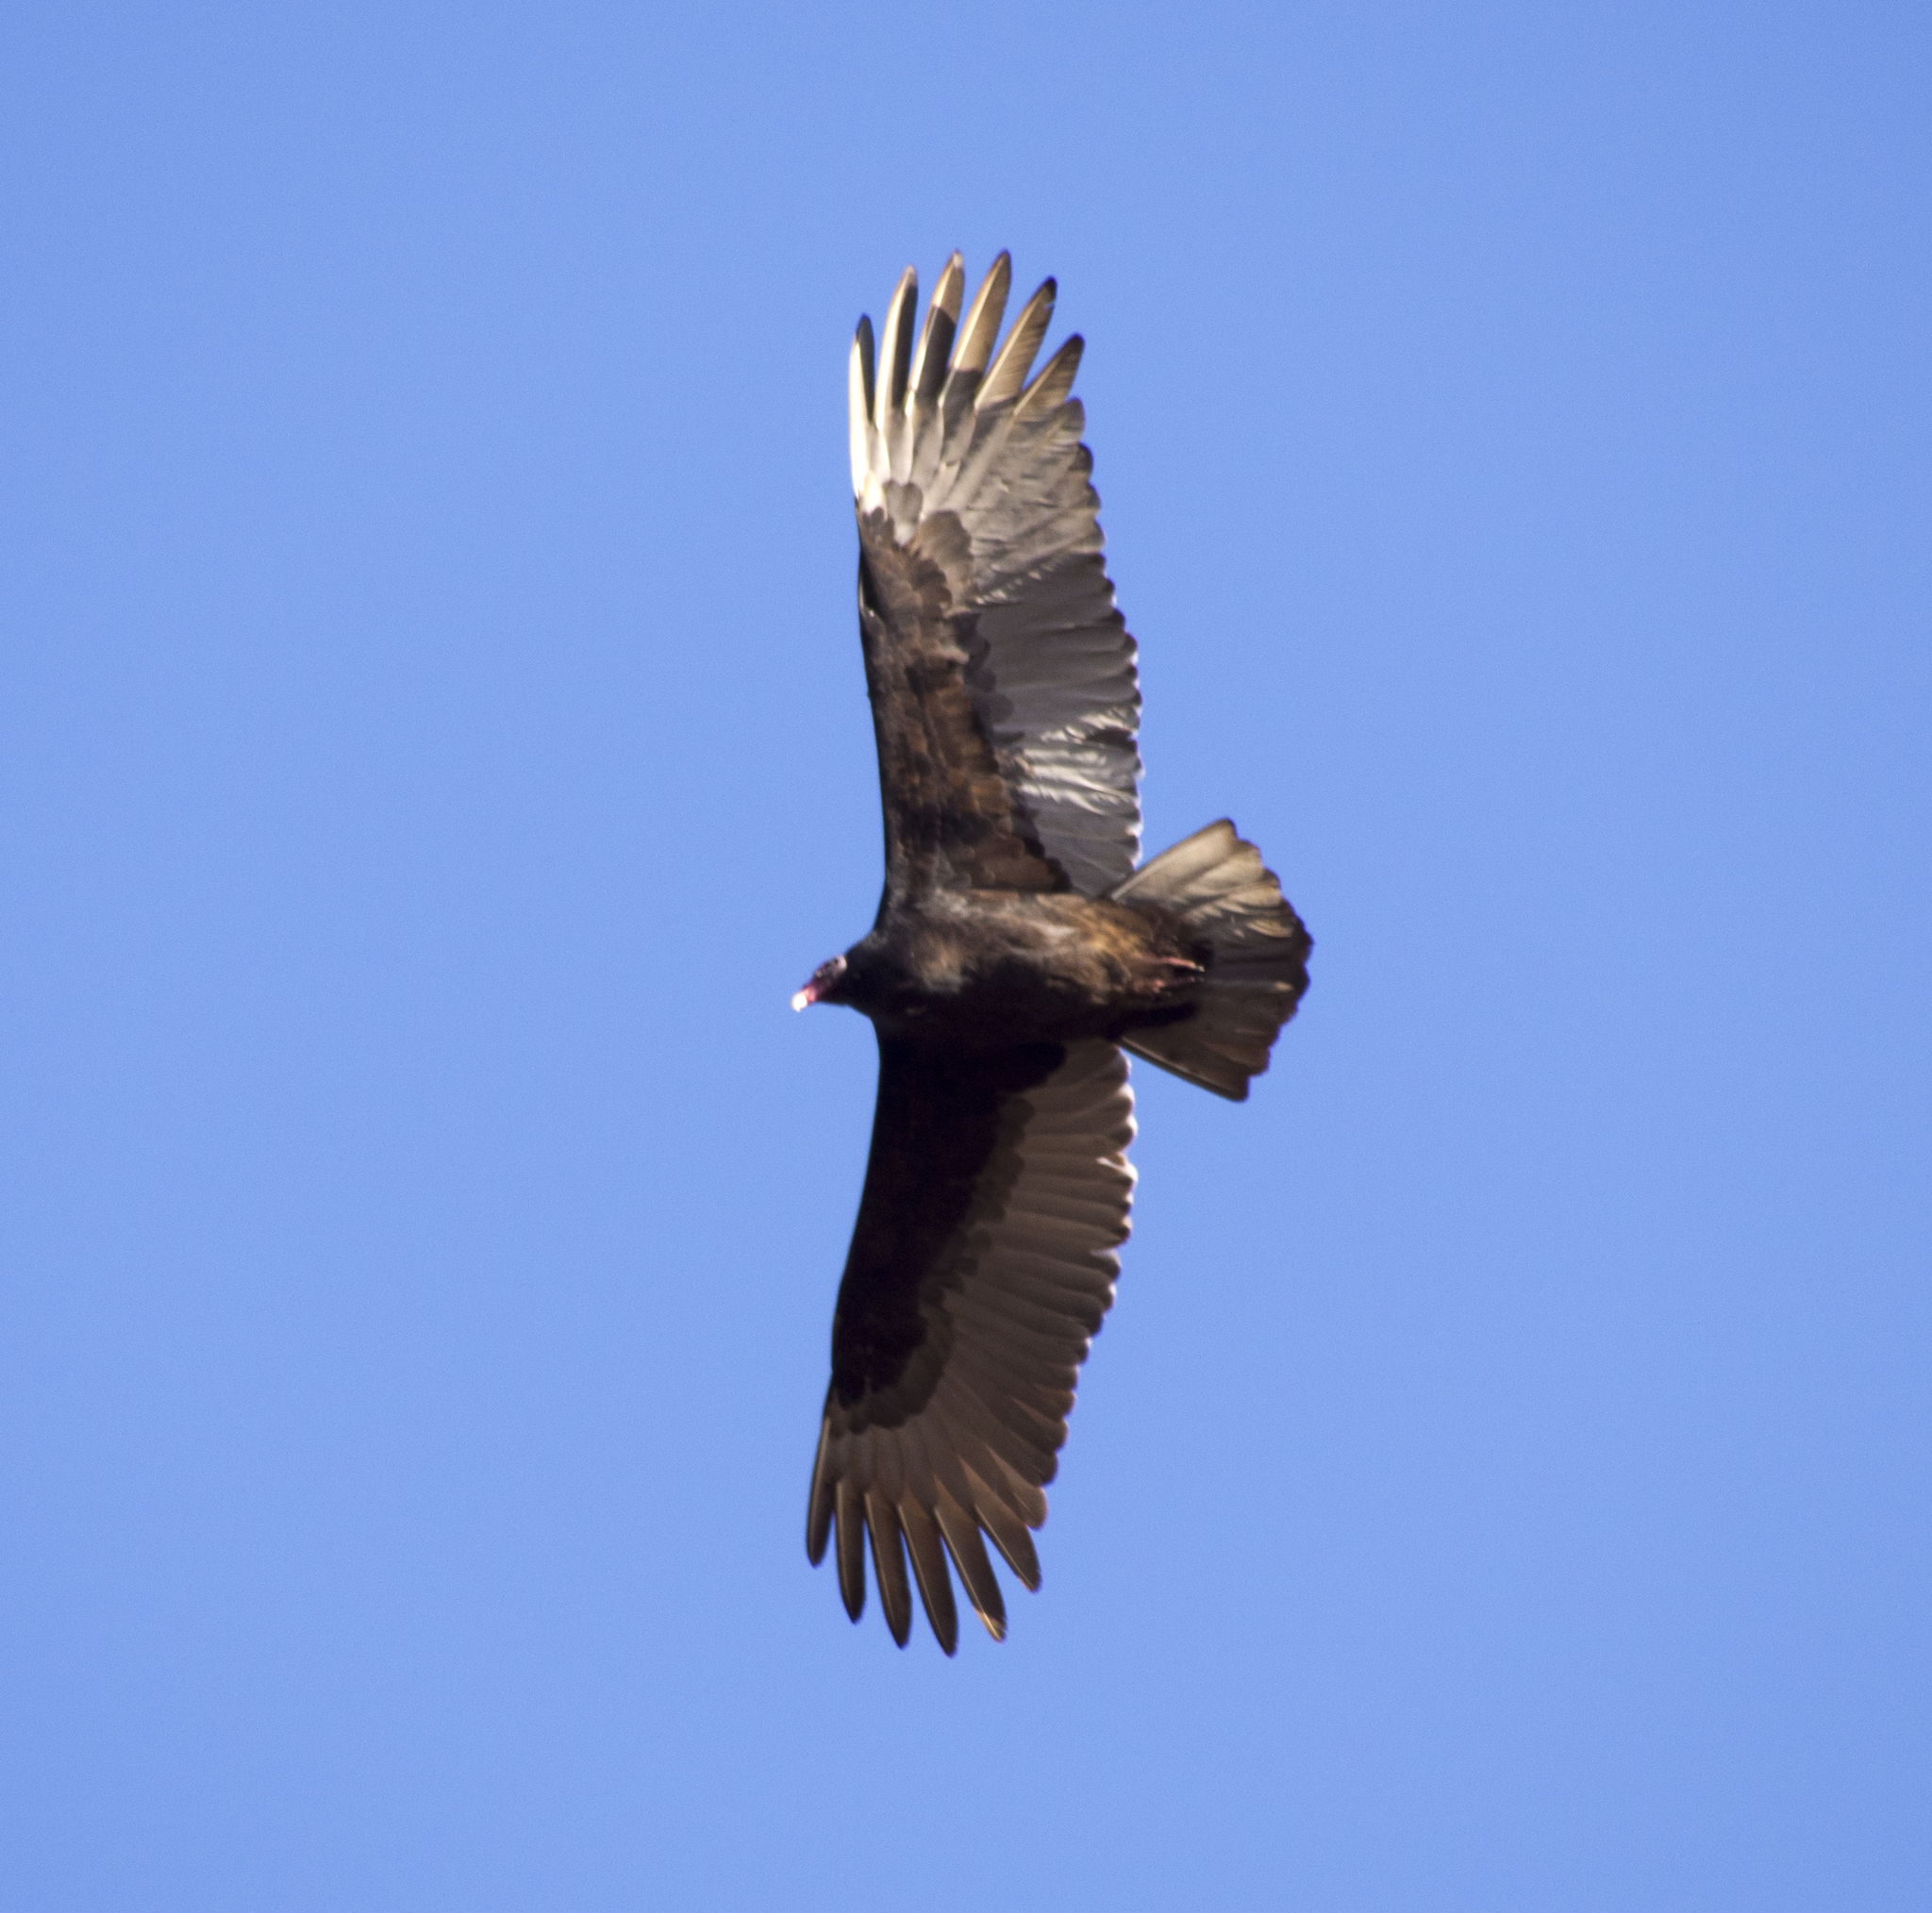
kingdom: Animalia
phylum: Chordata
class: Aves
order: Accipitriformes
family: Cathartidae
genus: Cathartes
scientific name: Cathartes aura
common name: Turkey vulture
